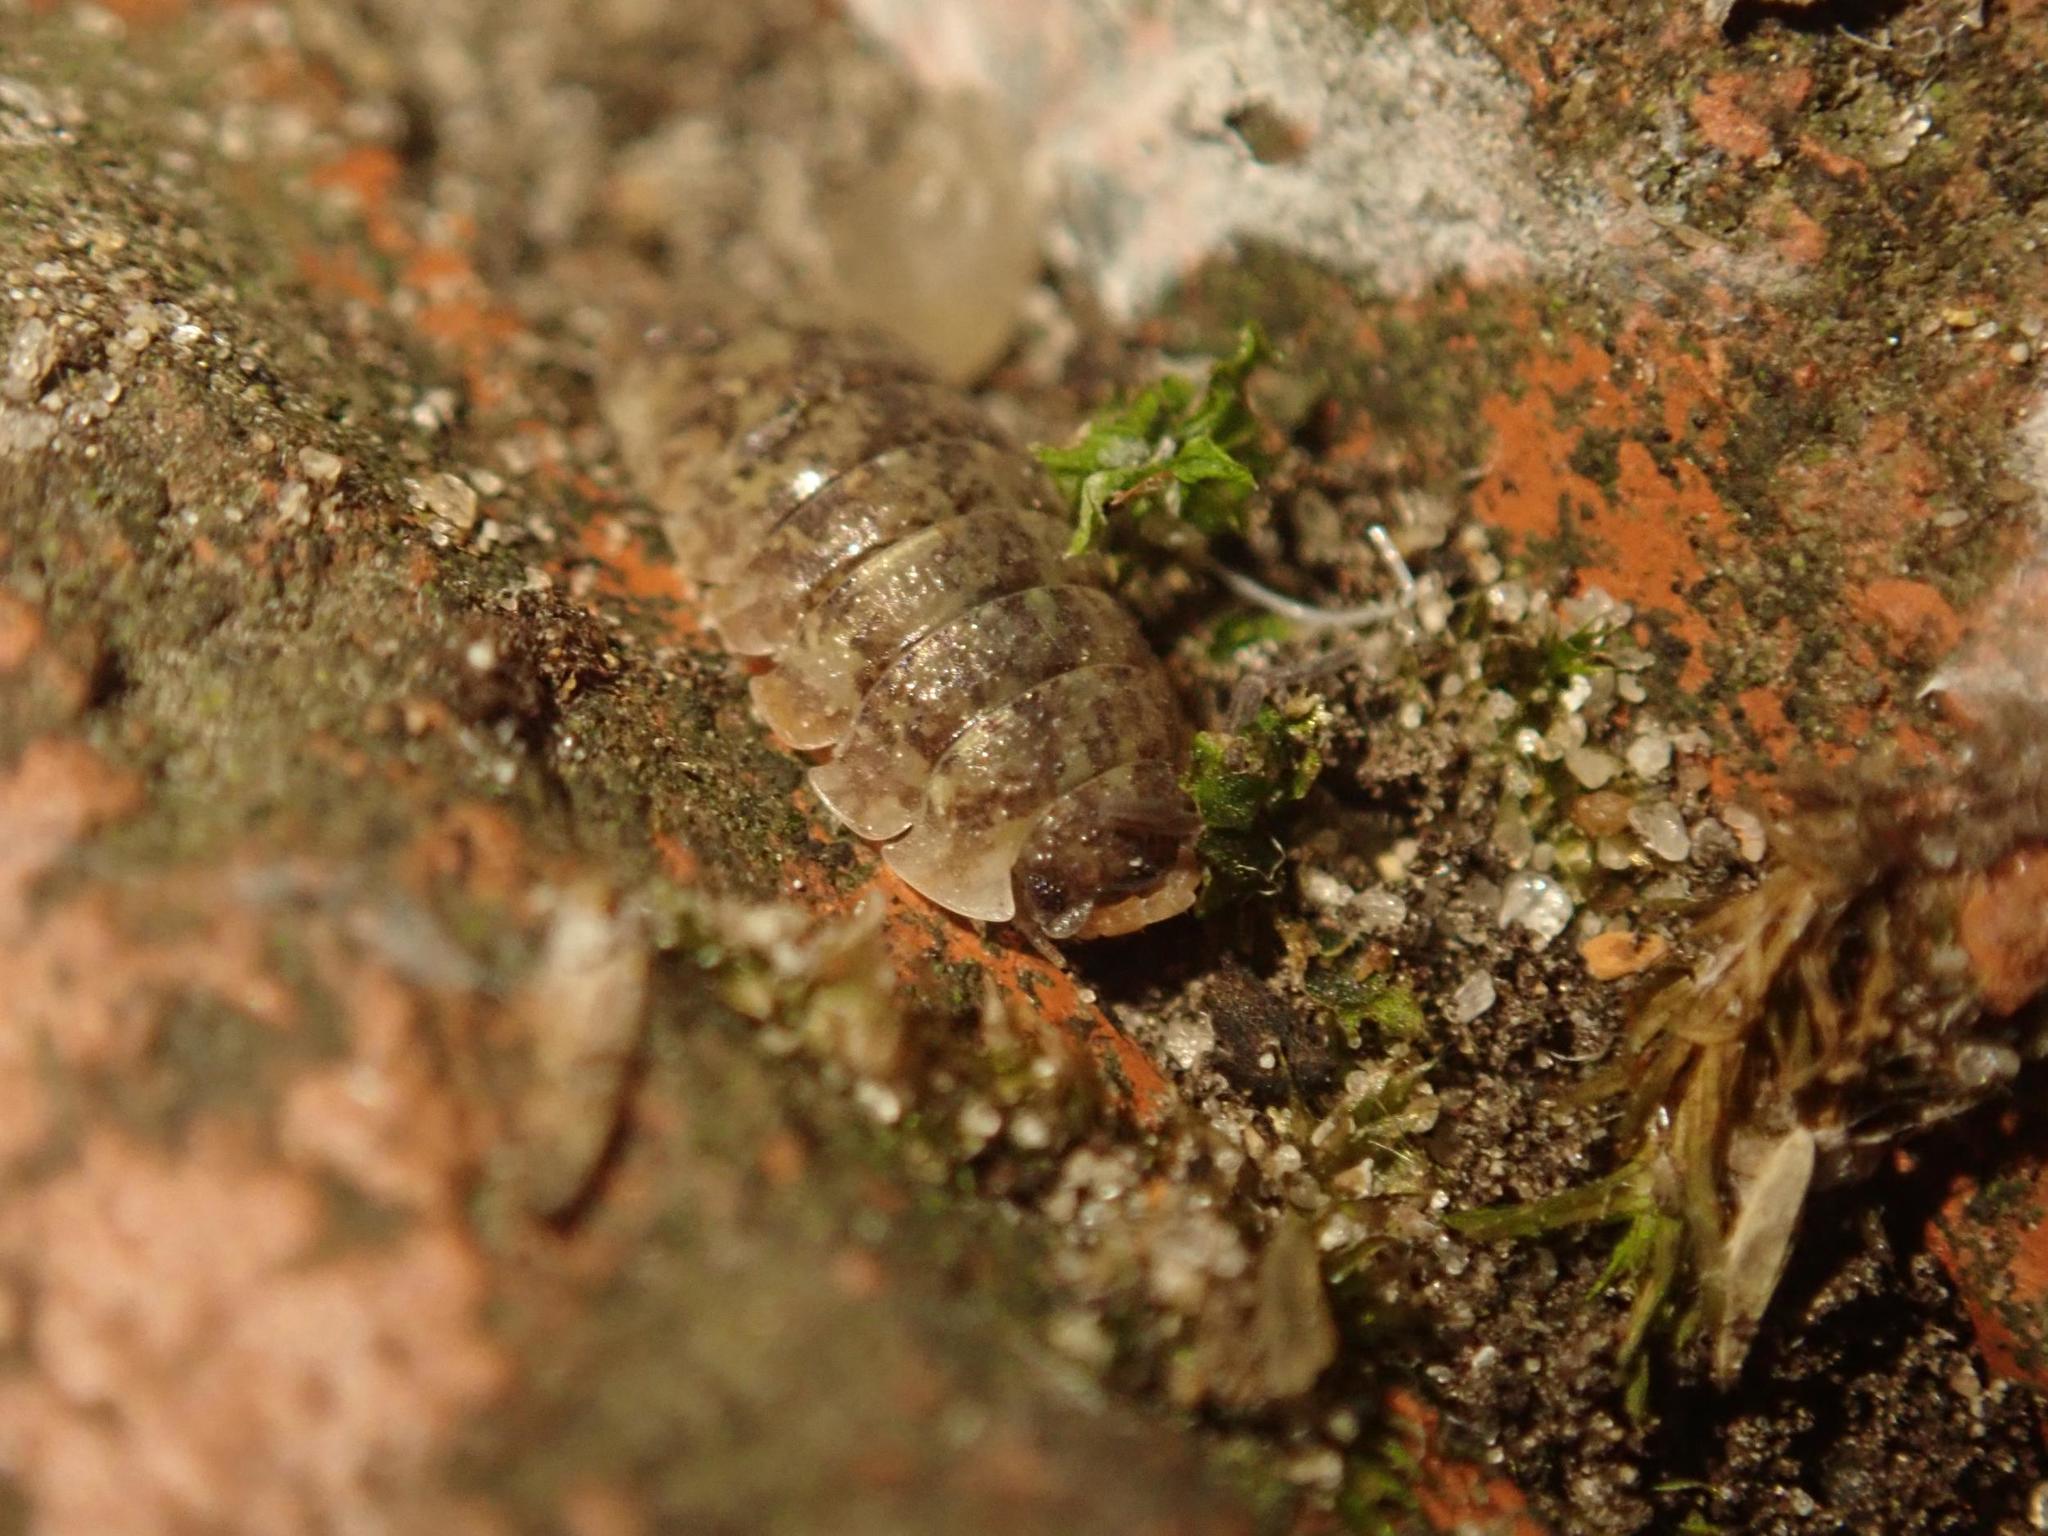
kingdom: Animalia
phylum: Arthropoda
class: Malacostraca
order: Isopoda
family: Porcellionidae
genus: Porcellio
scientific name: Porcellio scaber
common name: Common rough woodlouse
